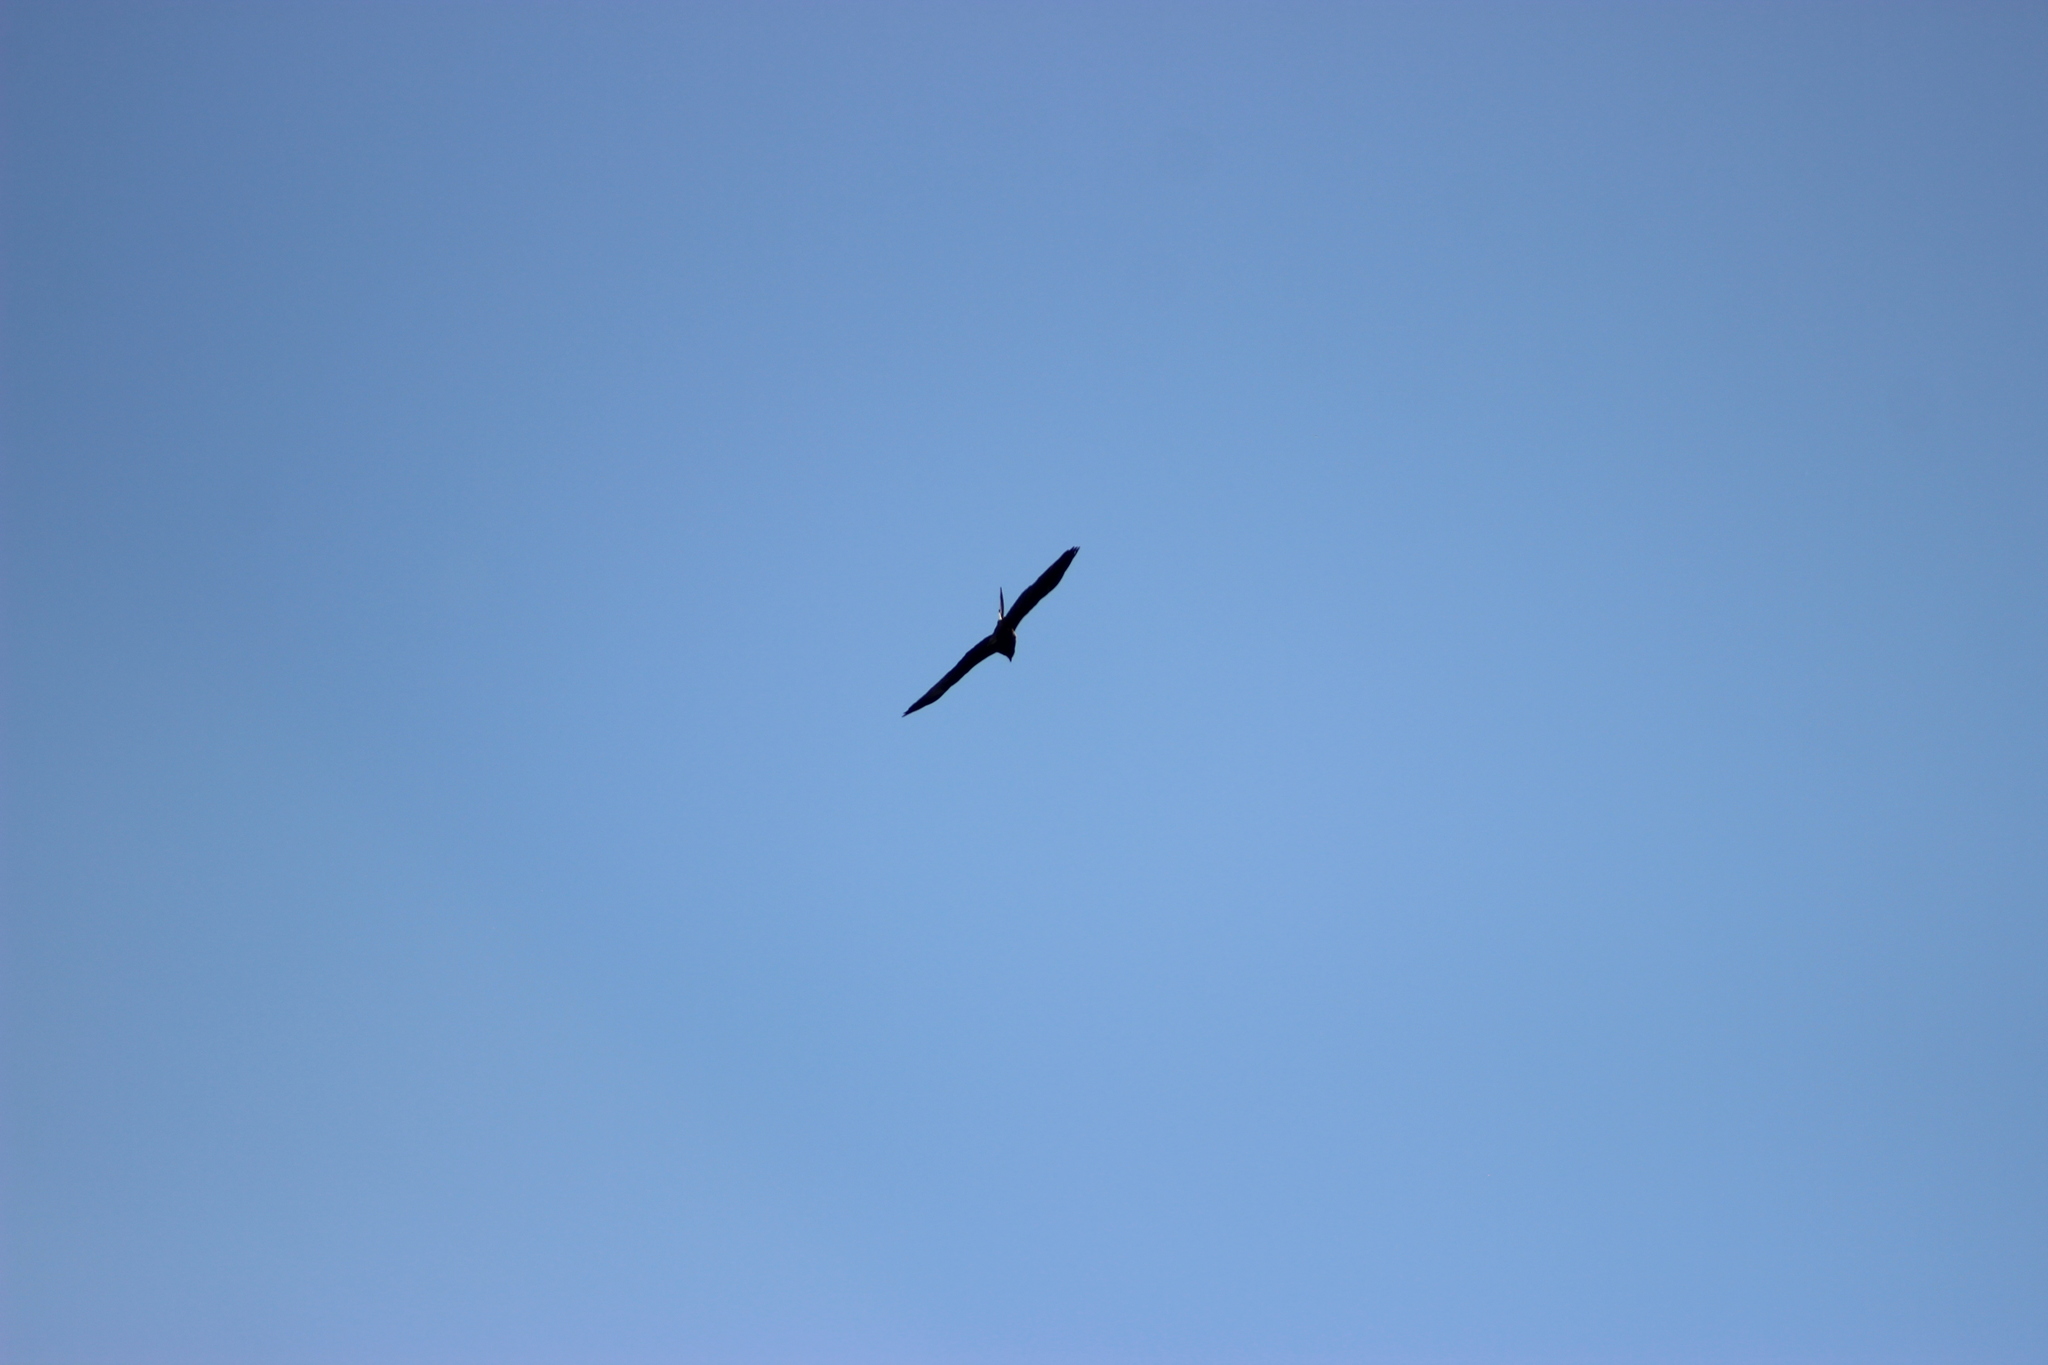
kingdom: Animalia
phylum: Chordata
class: Aves
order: Accipitriformes
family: Accipitridae
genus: Milvus
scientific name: Milvus migrans
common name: Black kite
